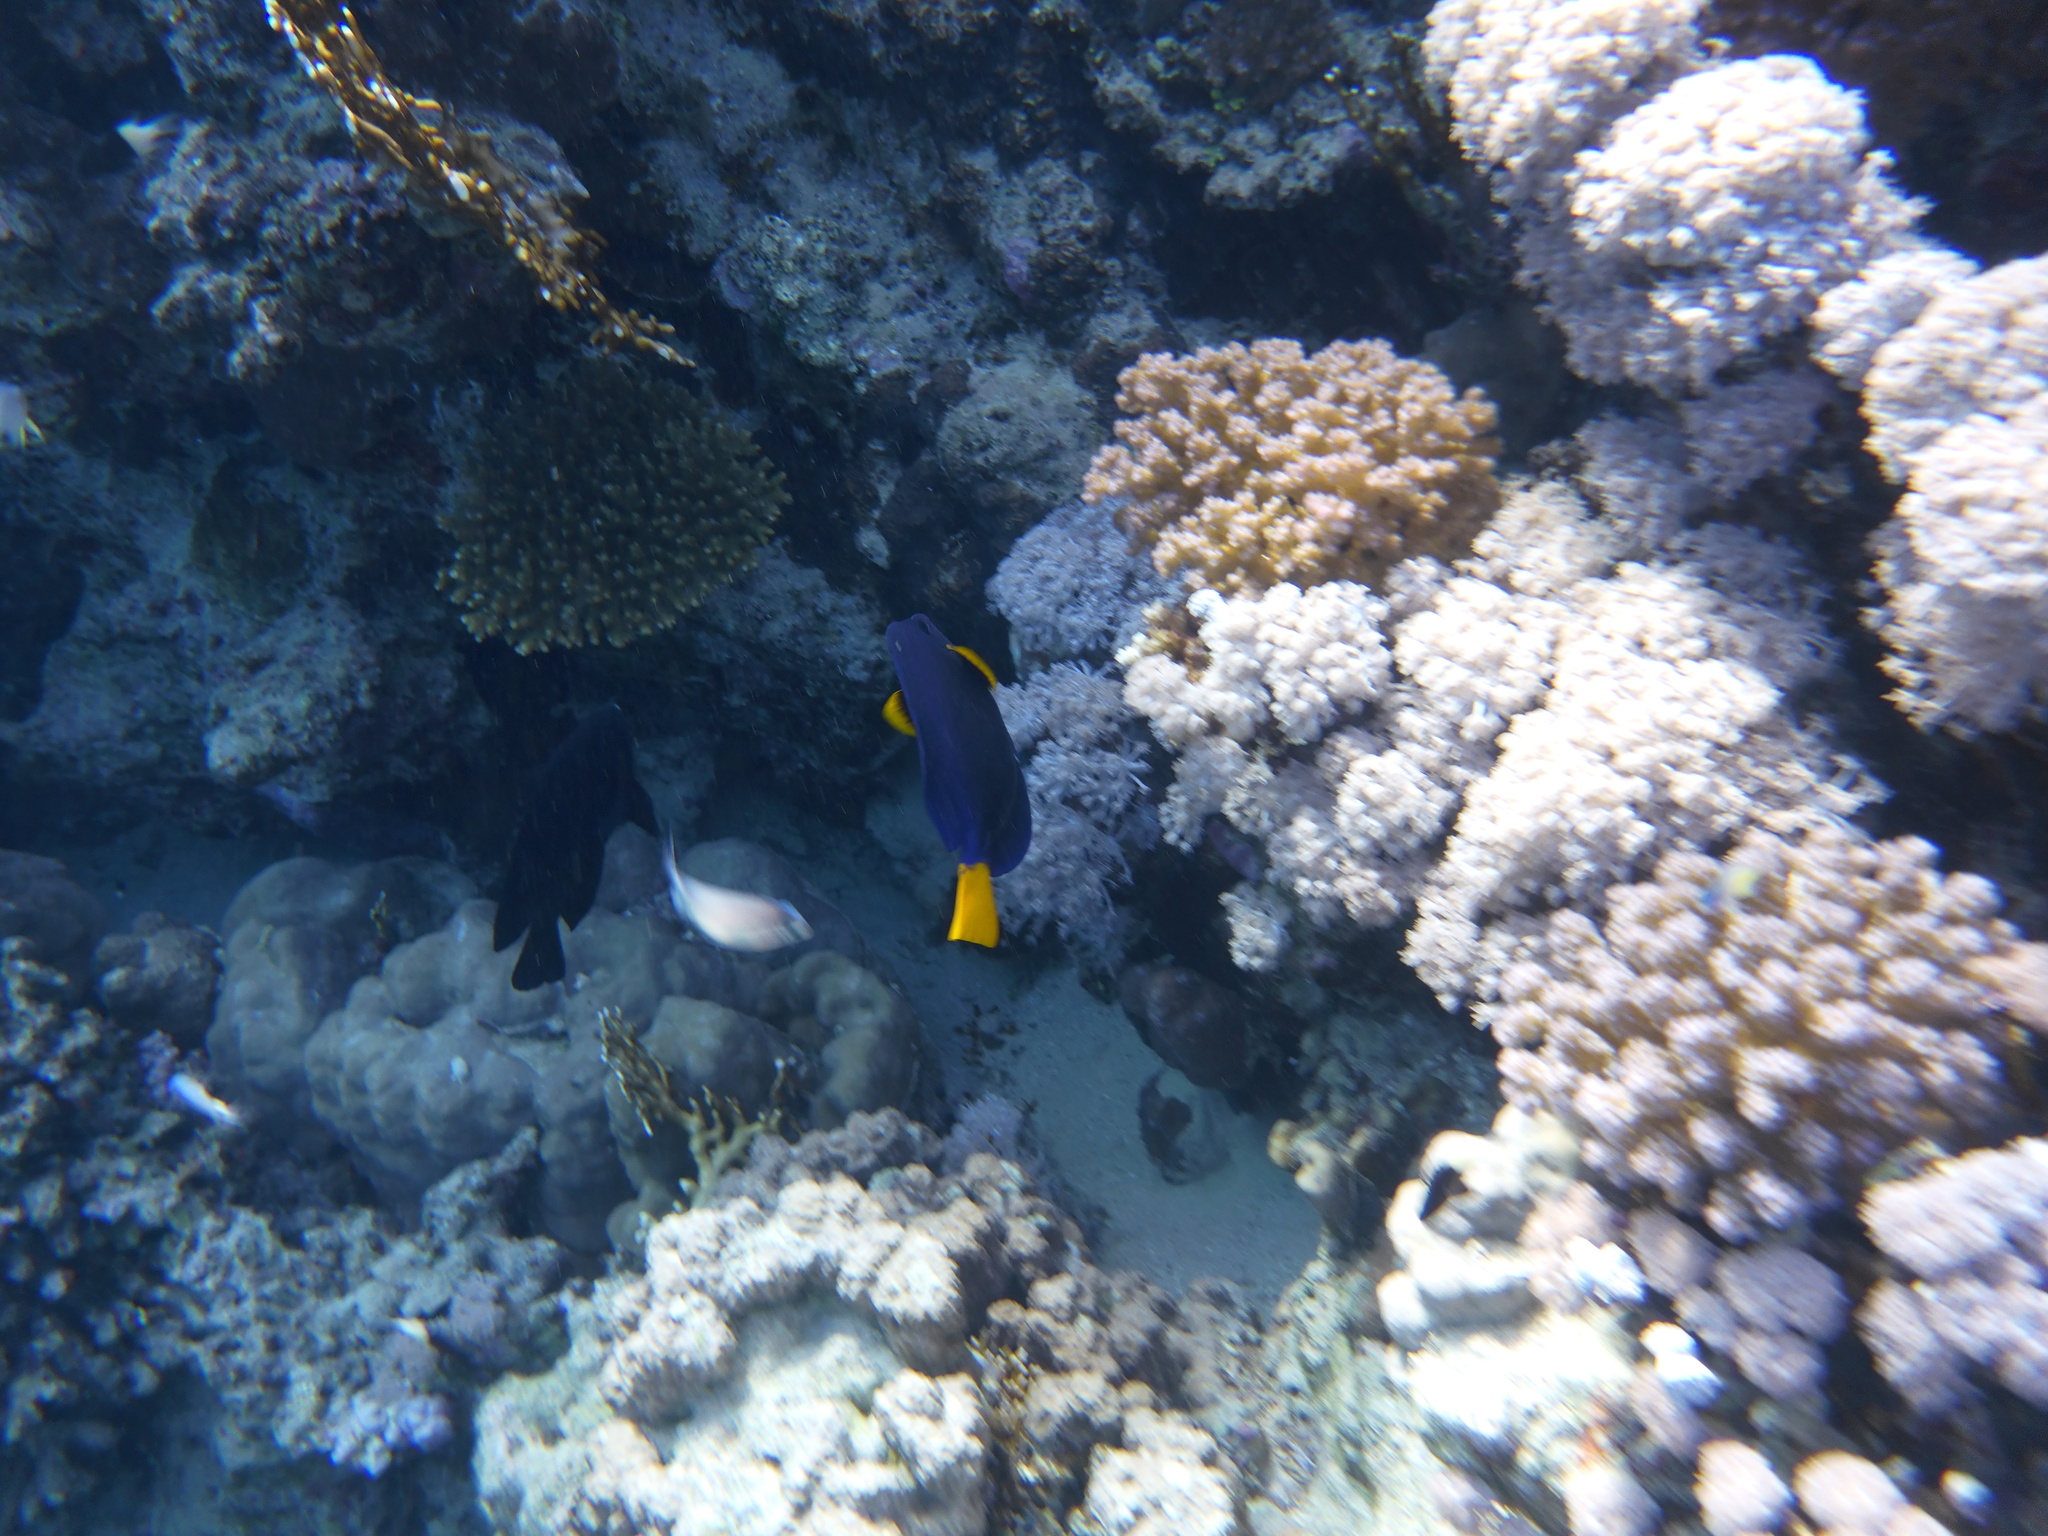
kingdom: Animalia
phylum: Chordata
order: Perciformes
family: Acanthuridae
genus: Zebrasoma
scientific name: Zebrasoma xanthurum
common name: Purple tang
